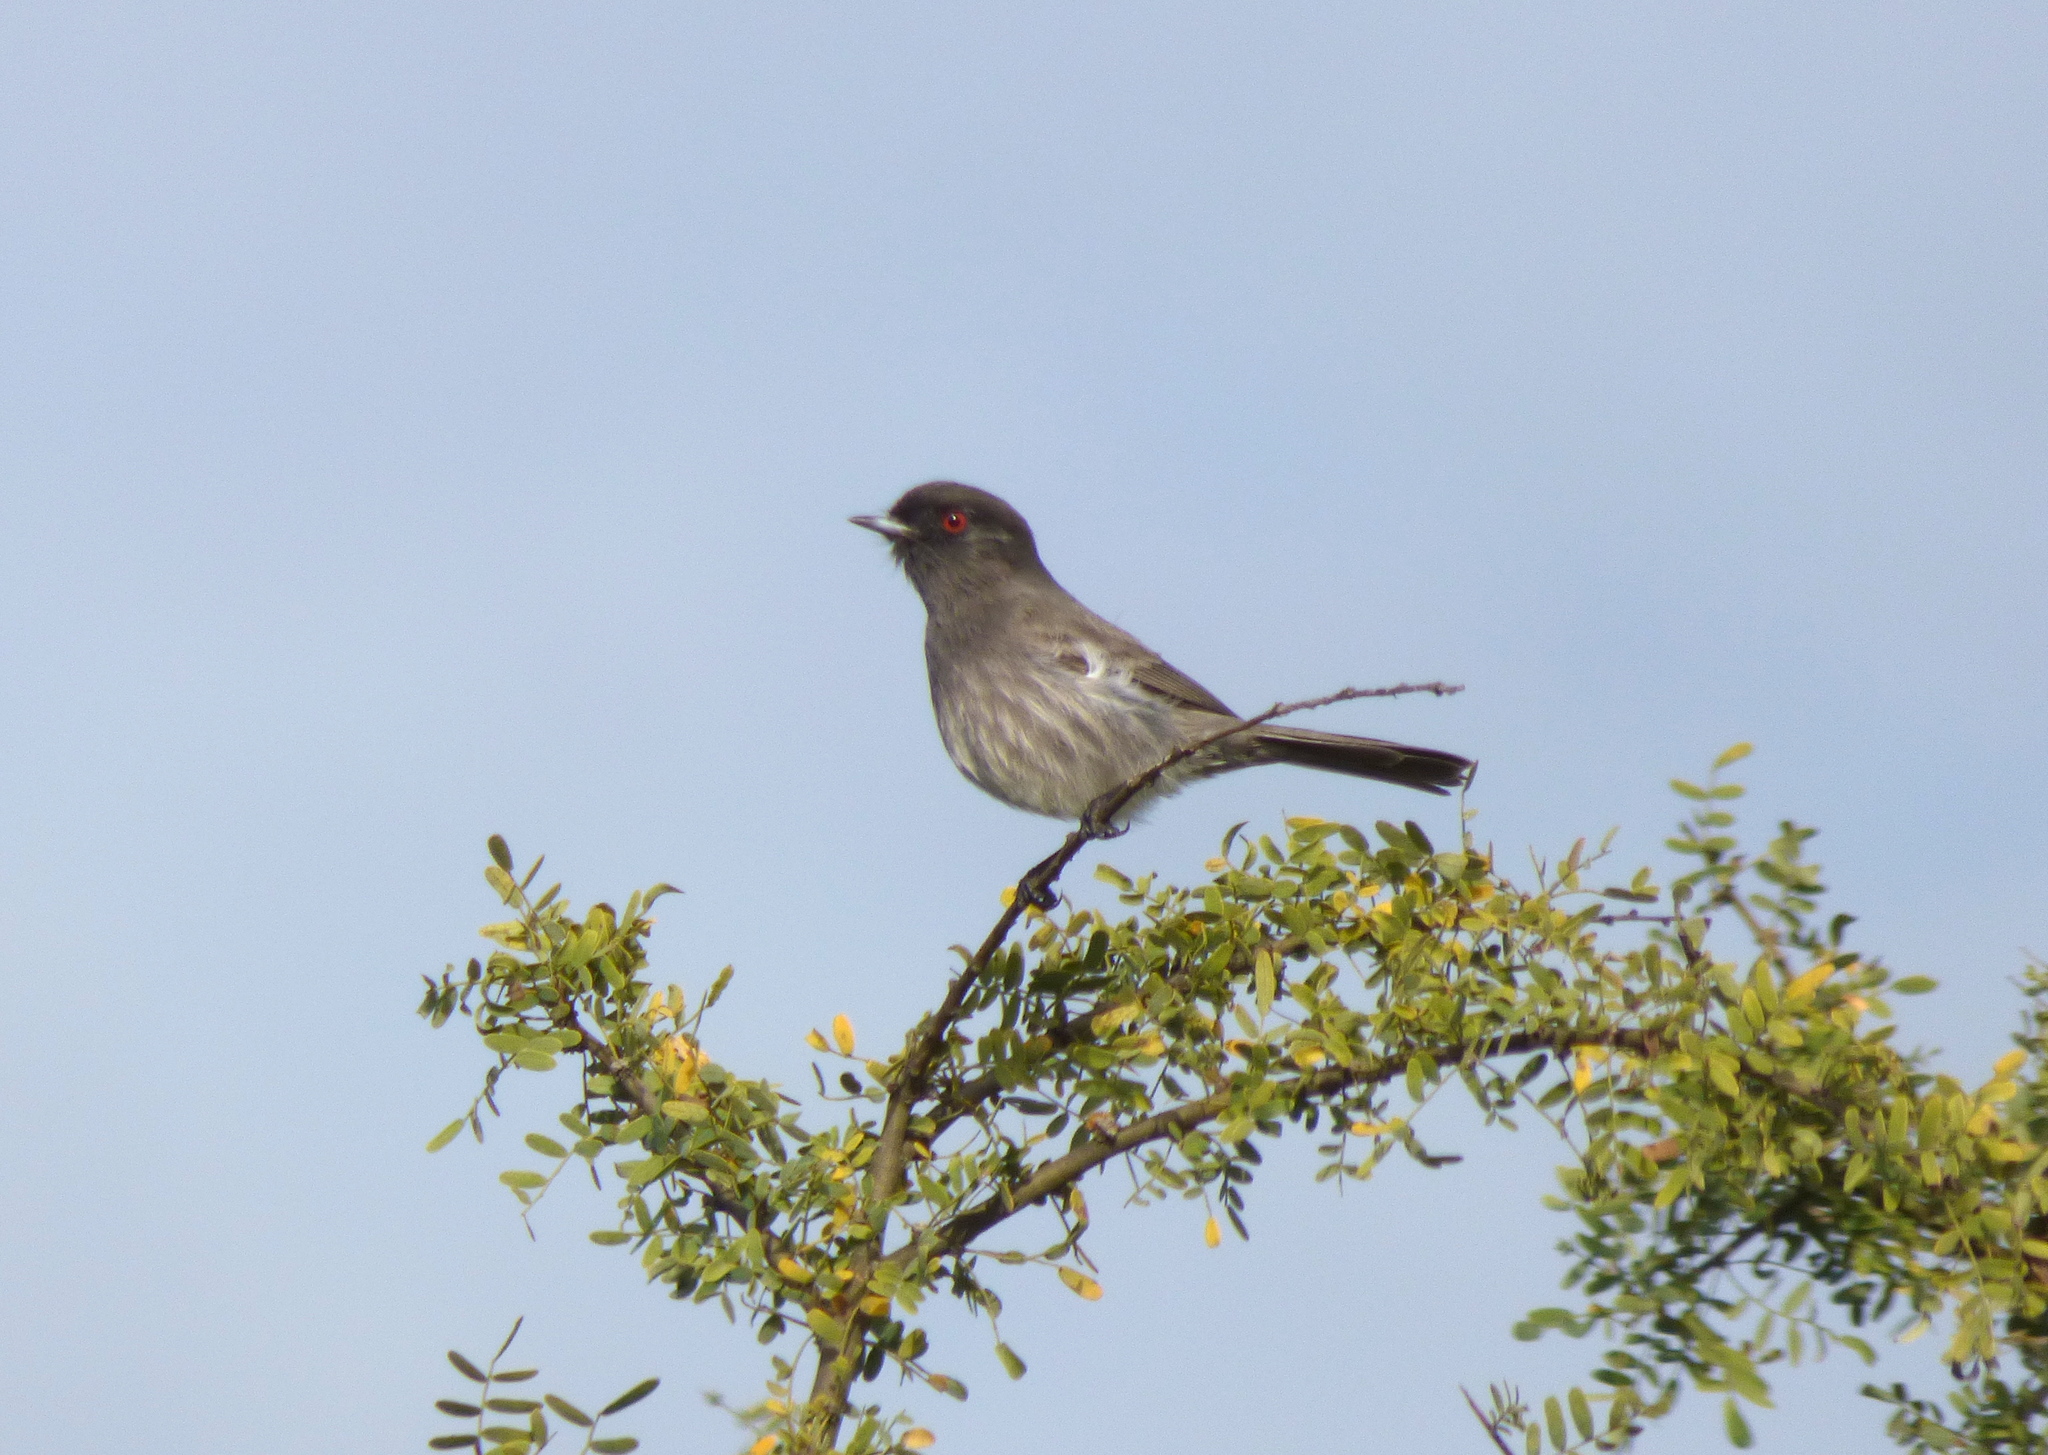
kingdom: Animalia
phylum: Chordata
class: Aves
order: Passeriformes
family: Tyrannidae
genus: Knipolegus
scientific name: Knipolegus striaticeps
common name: Cinereous tyrant
